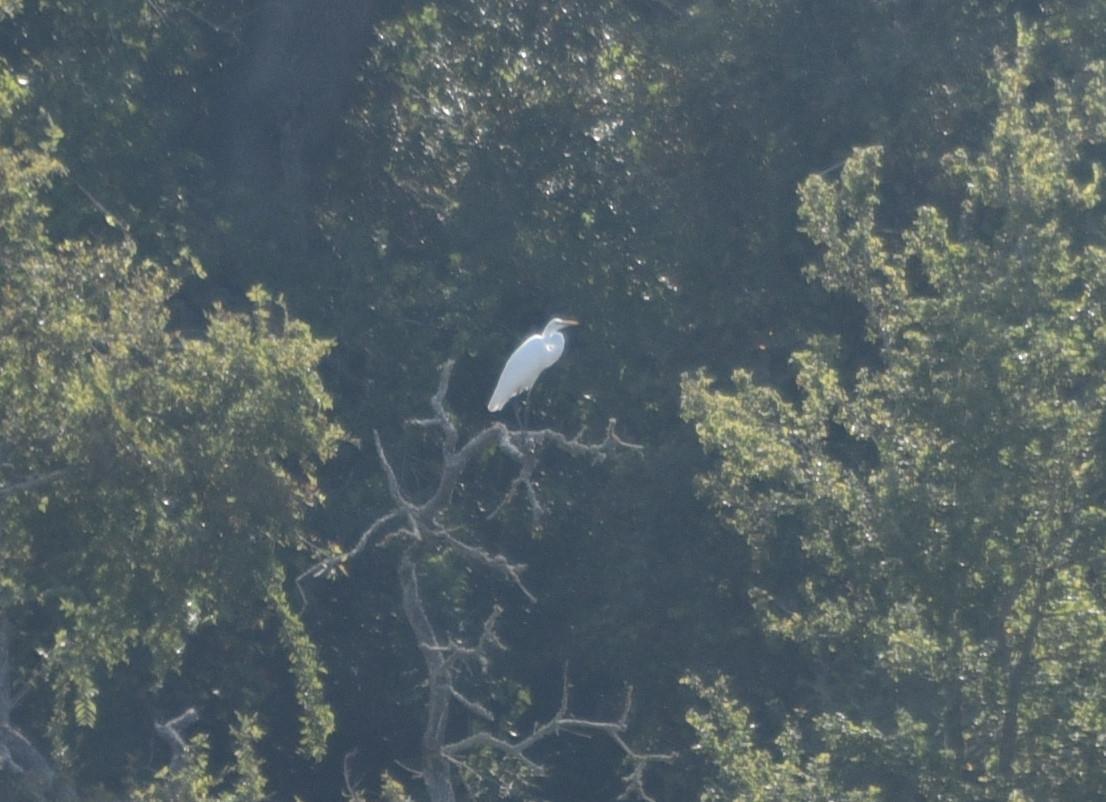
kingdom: Animalia
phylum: Chordata
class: Aves
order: Pelecaniformes
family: Ardeidae
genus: Ardea
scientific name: Ardea alba
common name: Great egret
